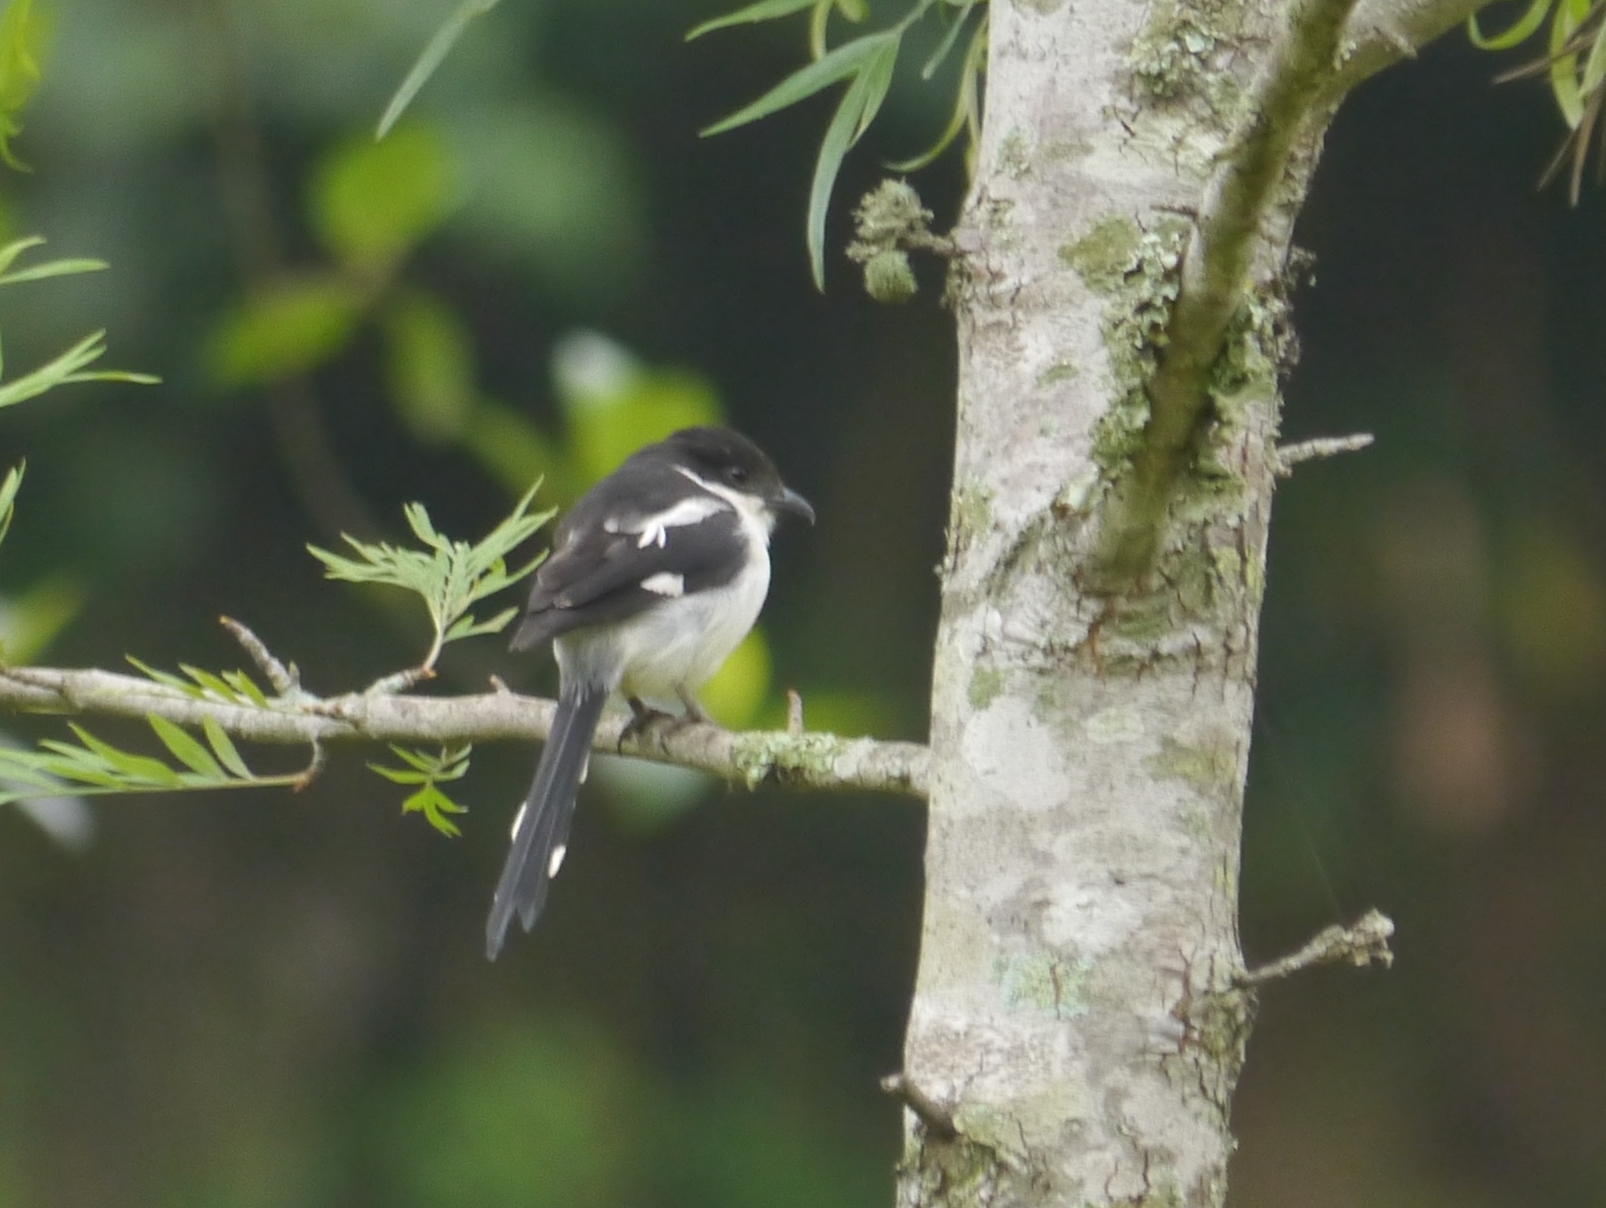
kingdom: Animalia
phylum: Chordata
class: Aves
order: Passeriformes
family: Laniidae
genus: Lanius
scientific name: Lanius humeralis
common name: Northern fiscal
